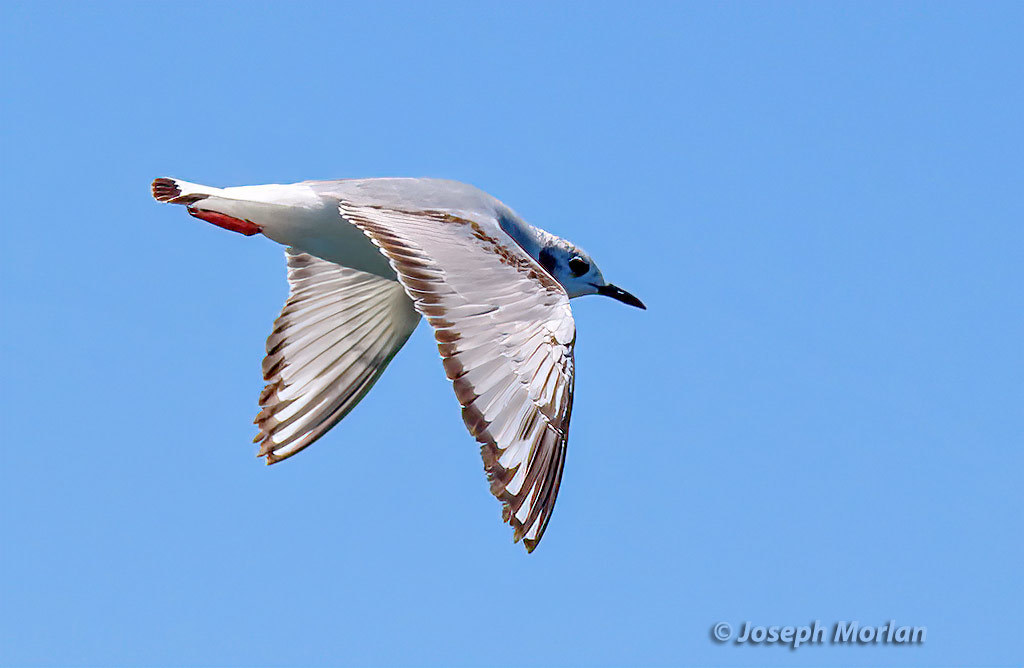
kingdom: Animalia
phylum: Chordata
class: Aves
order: Charadriiformes
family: Laridae
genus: Chroicocephalus
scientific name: Chroicocephalus philadelphia
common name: Bonaparte's gull
